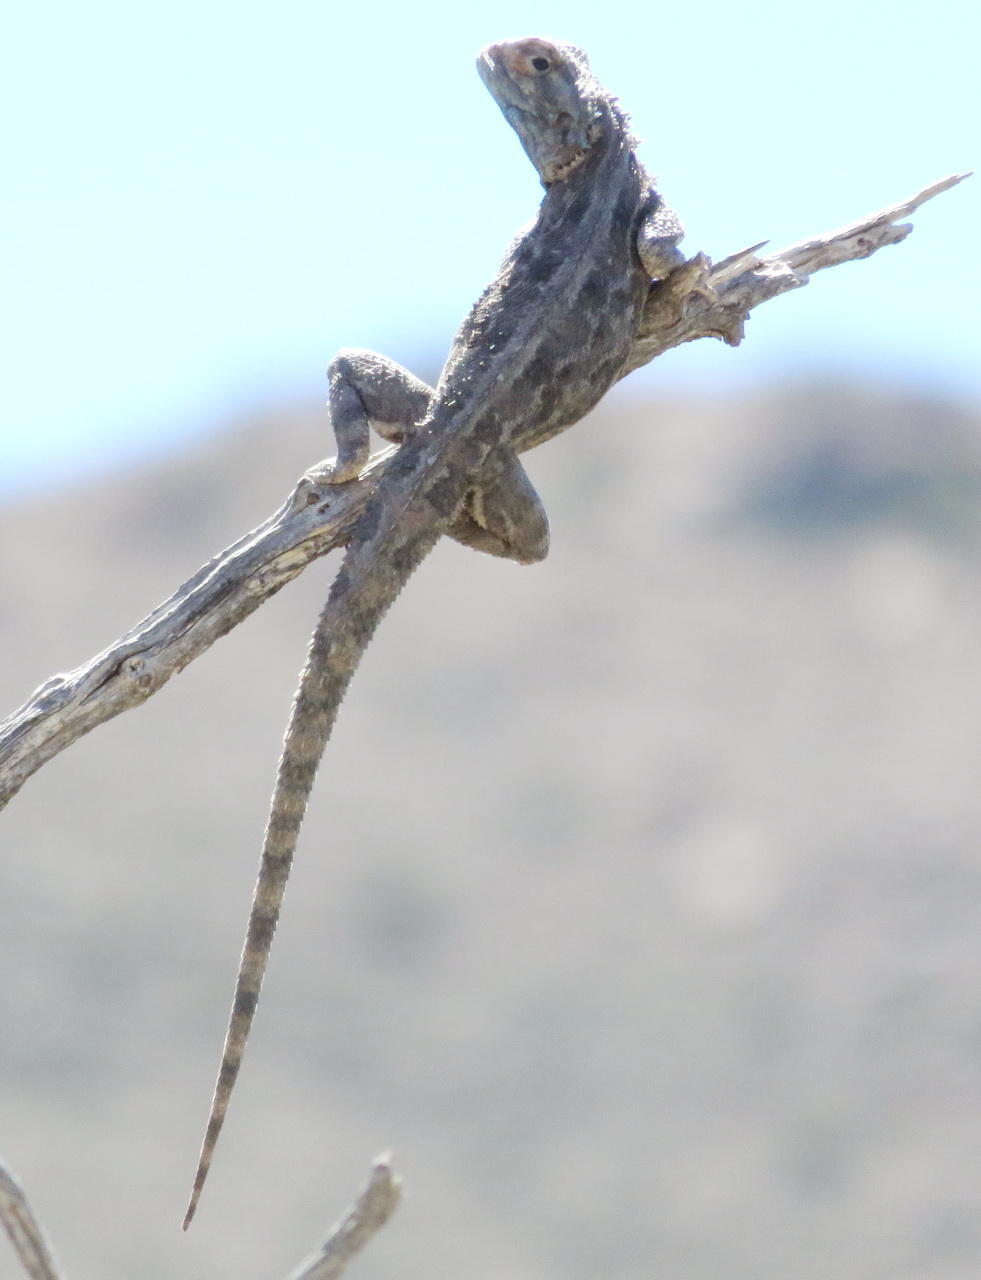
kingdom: Animalia
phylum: Chordata
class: Squamata
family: Agamidae
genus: Agama
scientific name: Agama aculeata
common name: Common ground agama
